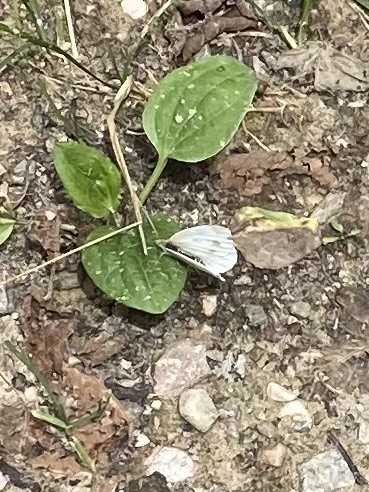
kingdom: Animalia
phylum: Arthropoda
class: Insecta
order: Lepidoptera
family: Pieridae
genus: Pieris
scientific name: Pieris napi
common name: Green-veined white
